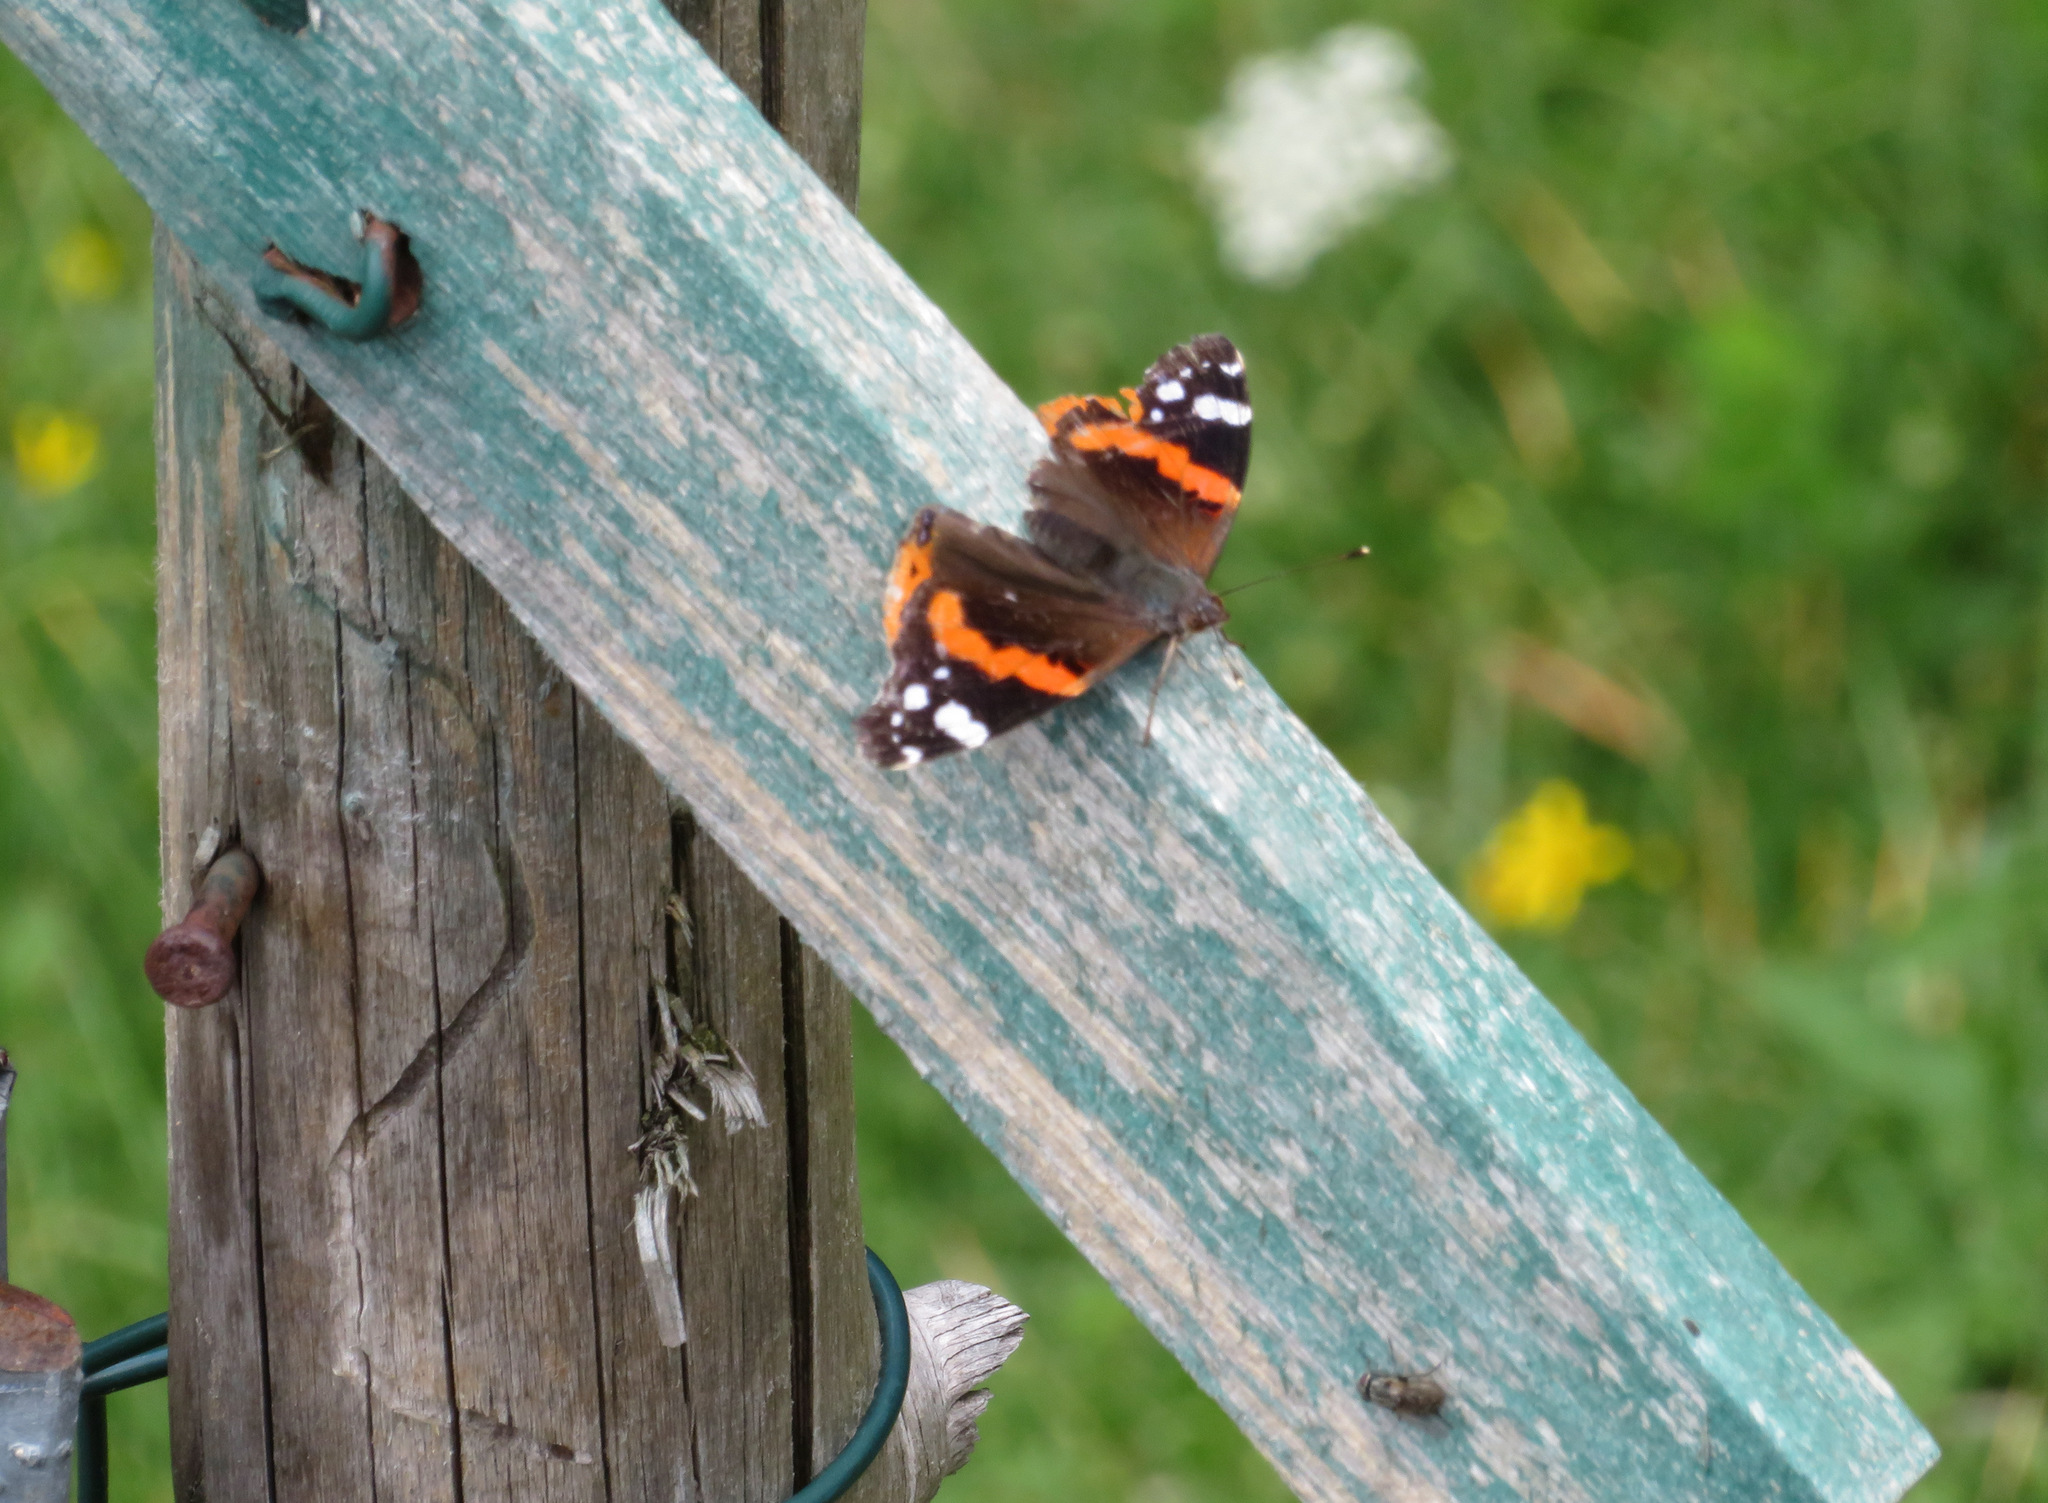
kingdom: Animalia
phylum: Arthropoda
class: Insecta
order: Lepidoptera
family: Nymphalidae
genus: Vanessa
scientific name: Vanessa atalanta
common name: Red admiral
